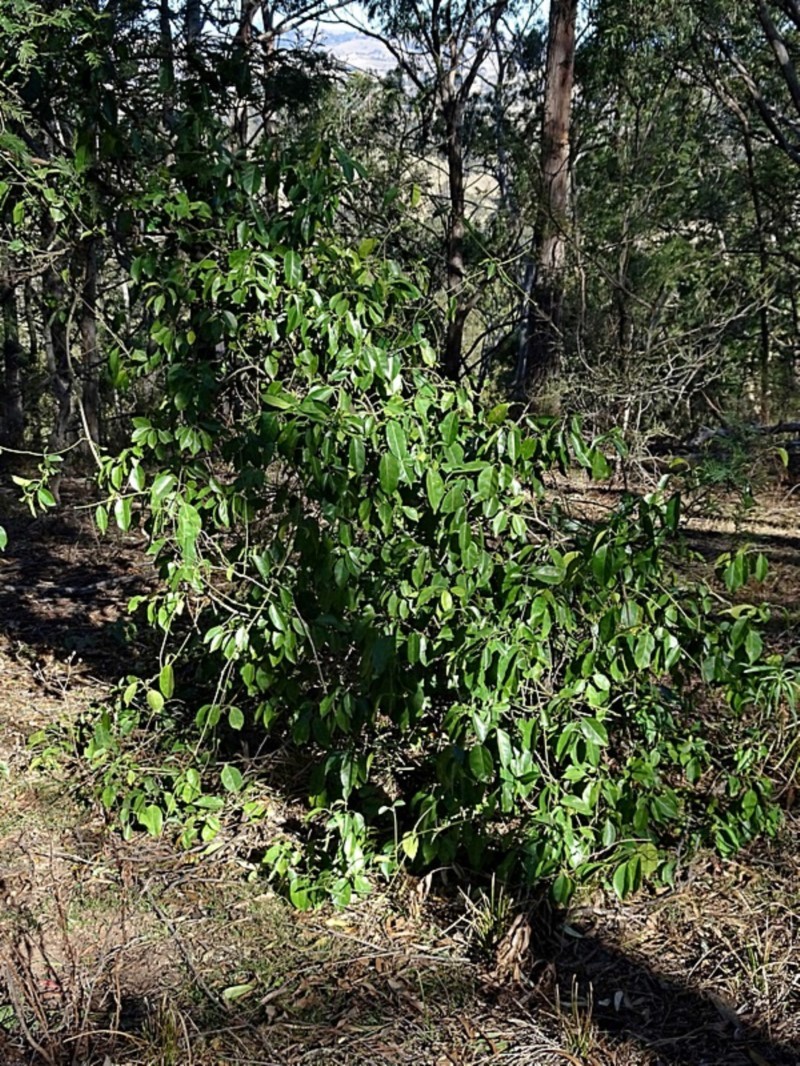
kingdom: Plantae
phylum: Tracheophyta
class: Magnoliopsida
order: Gentianales
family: Apocynaceae
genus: Leichhardtia
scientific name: Leichhardtia rostrata
